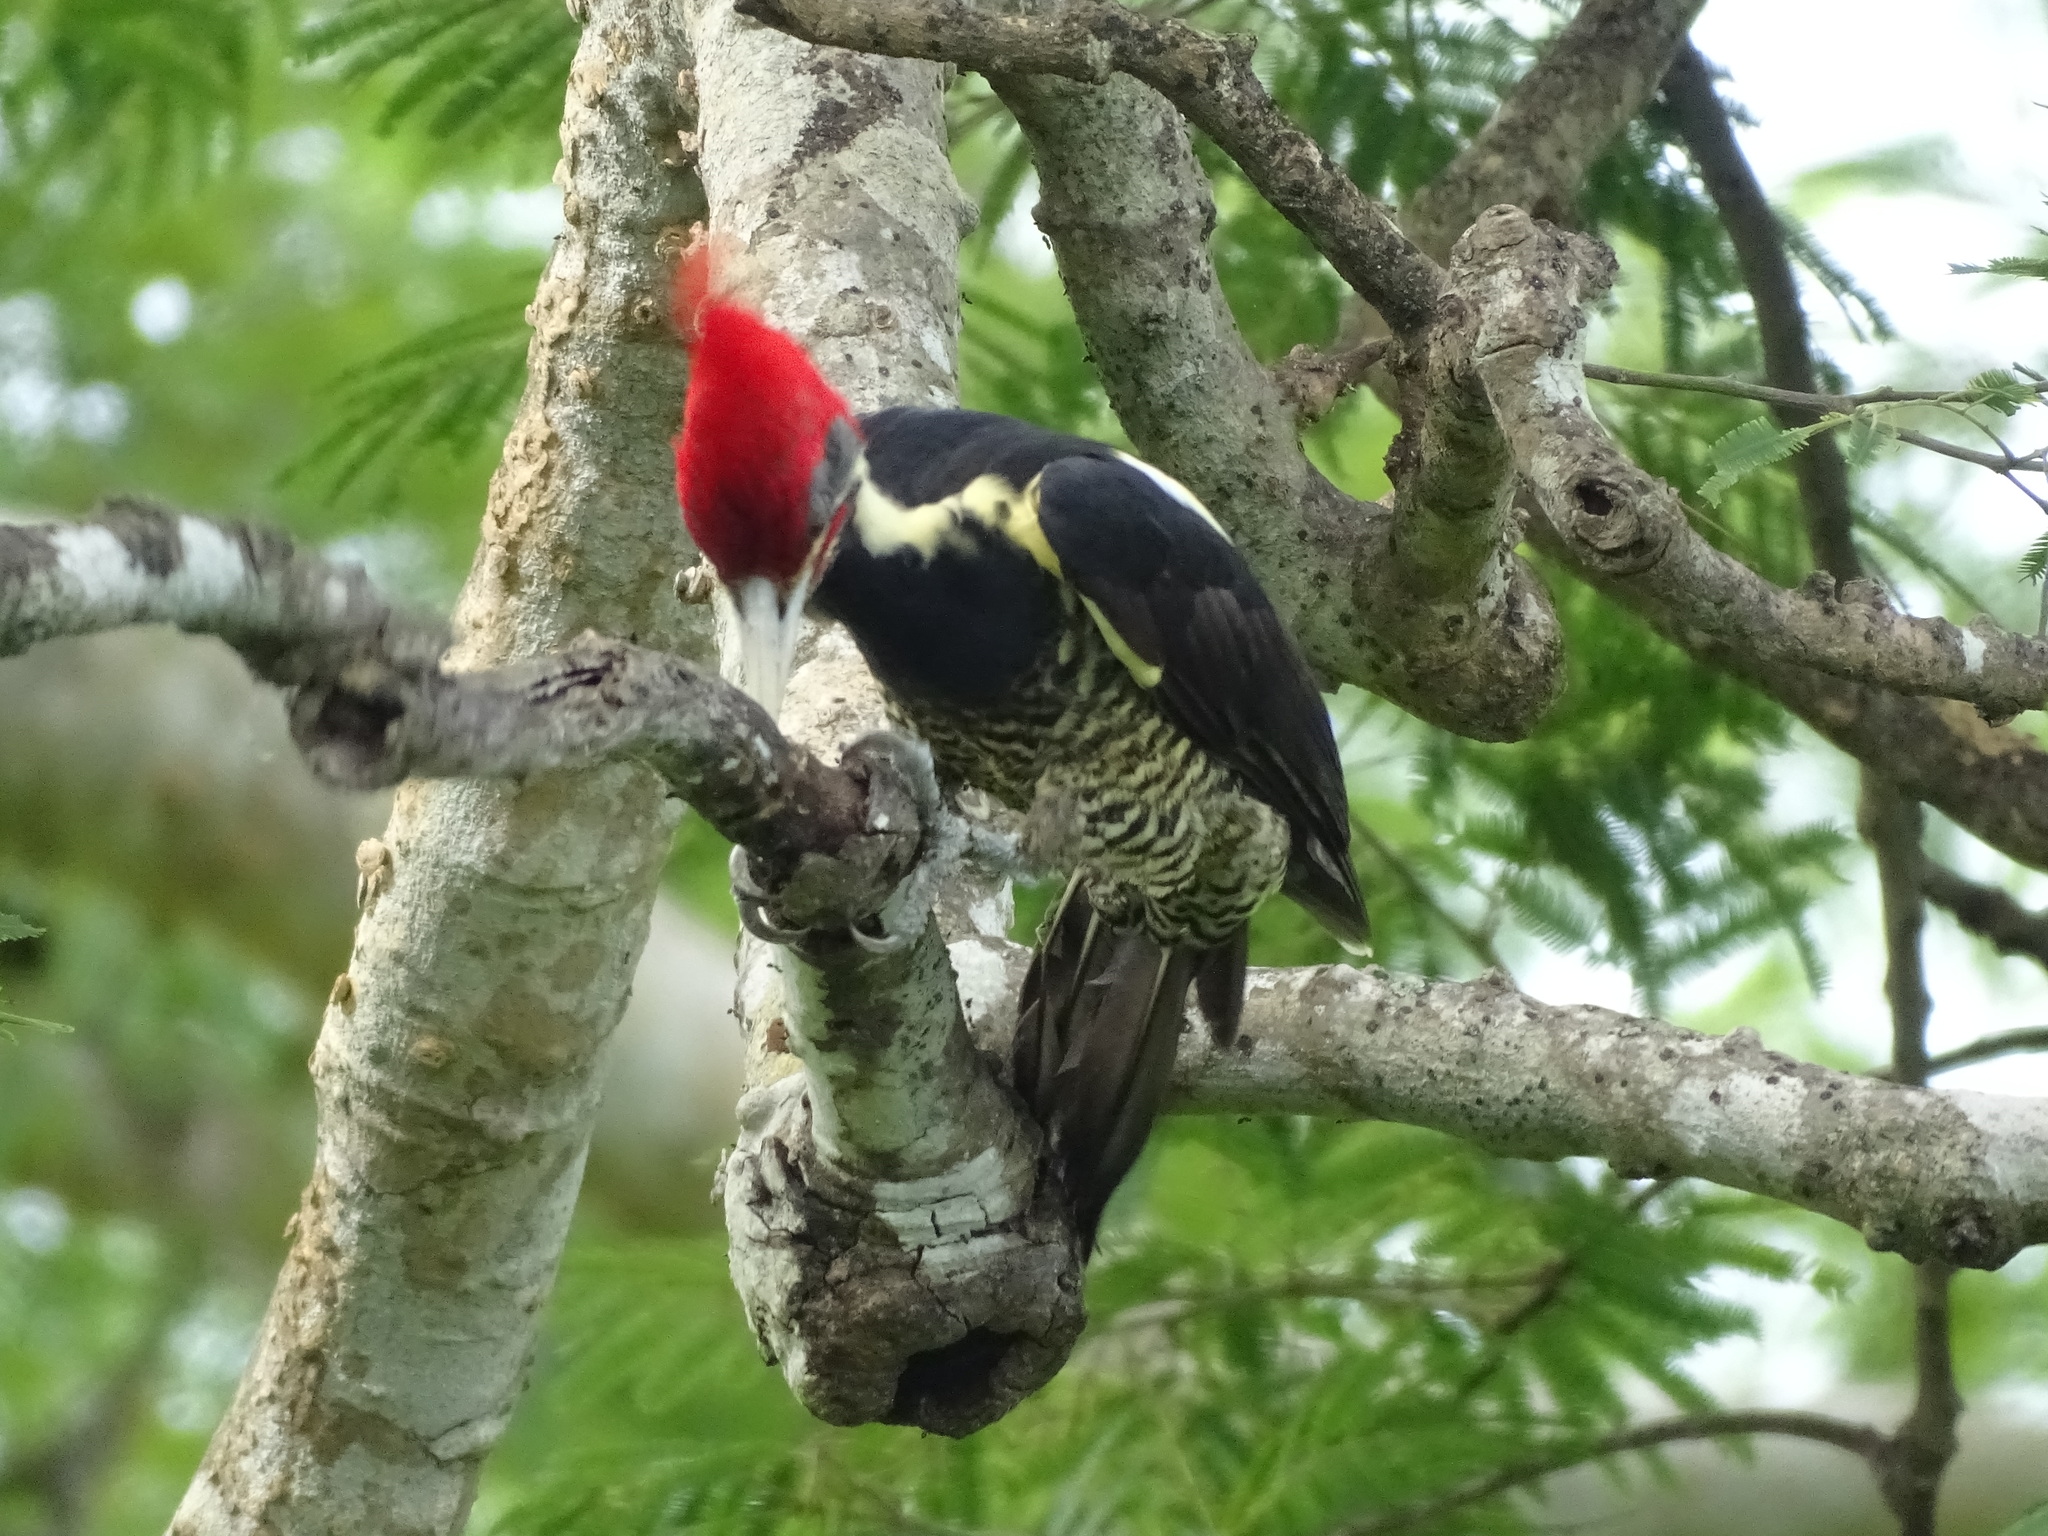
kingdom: Animalia
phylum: Chordata
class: Aves
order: Piciformes
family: Picidae
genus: Dryocopus
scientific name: Dryocopus lineatus
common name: Lineated woodpecker
